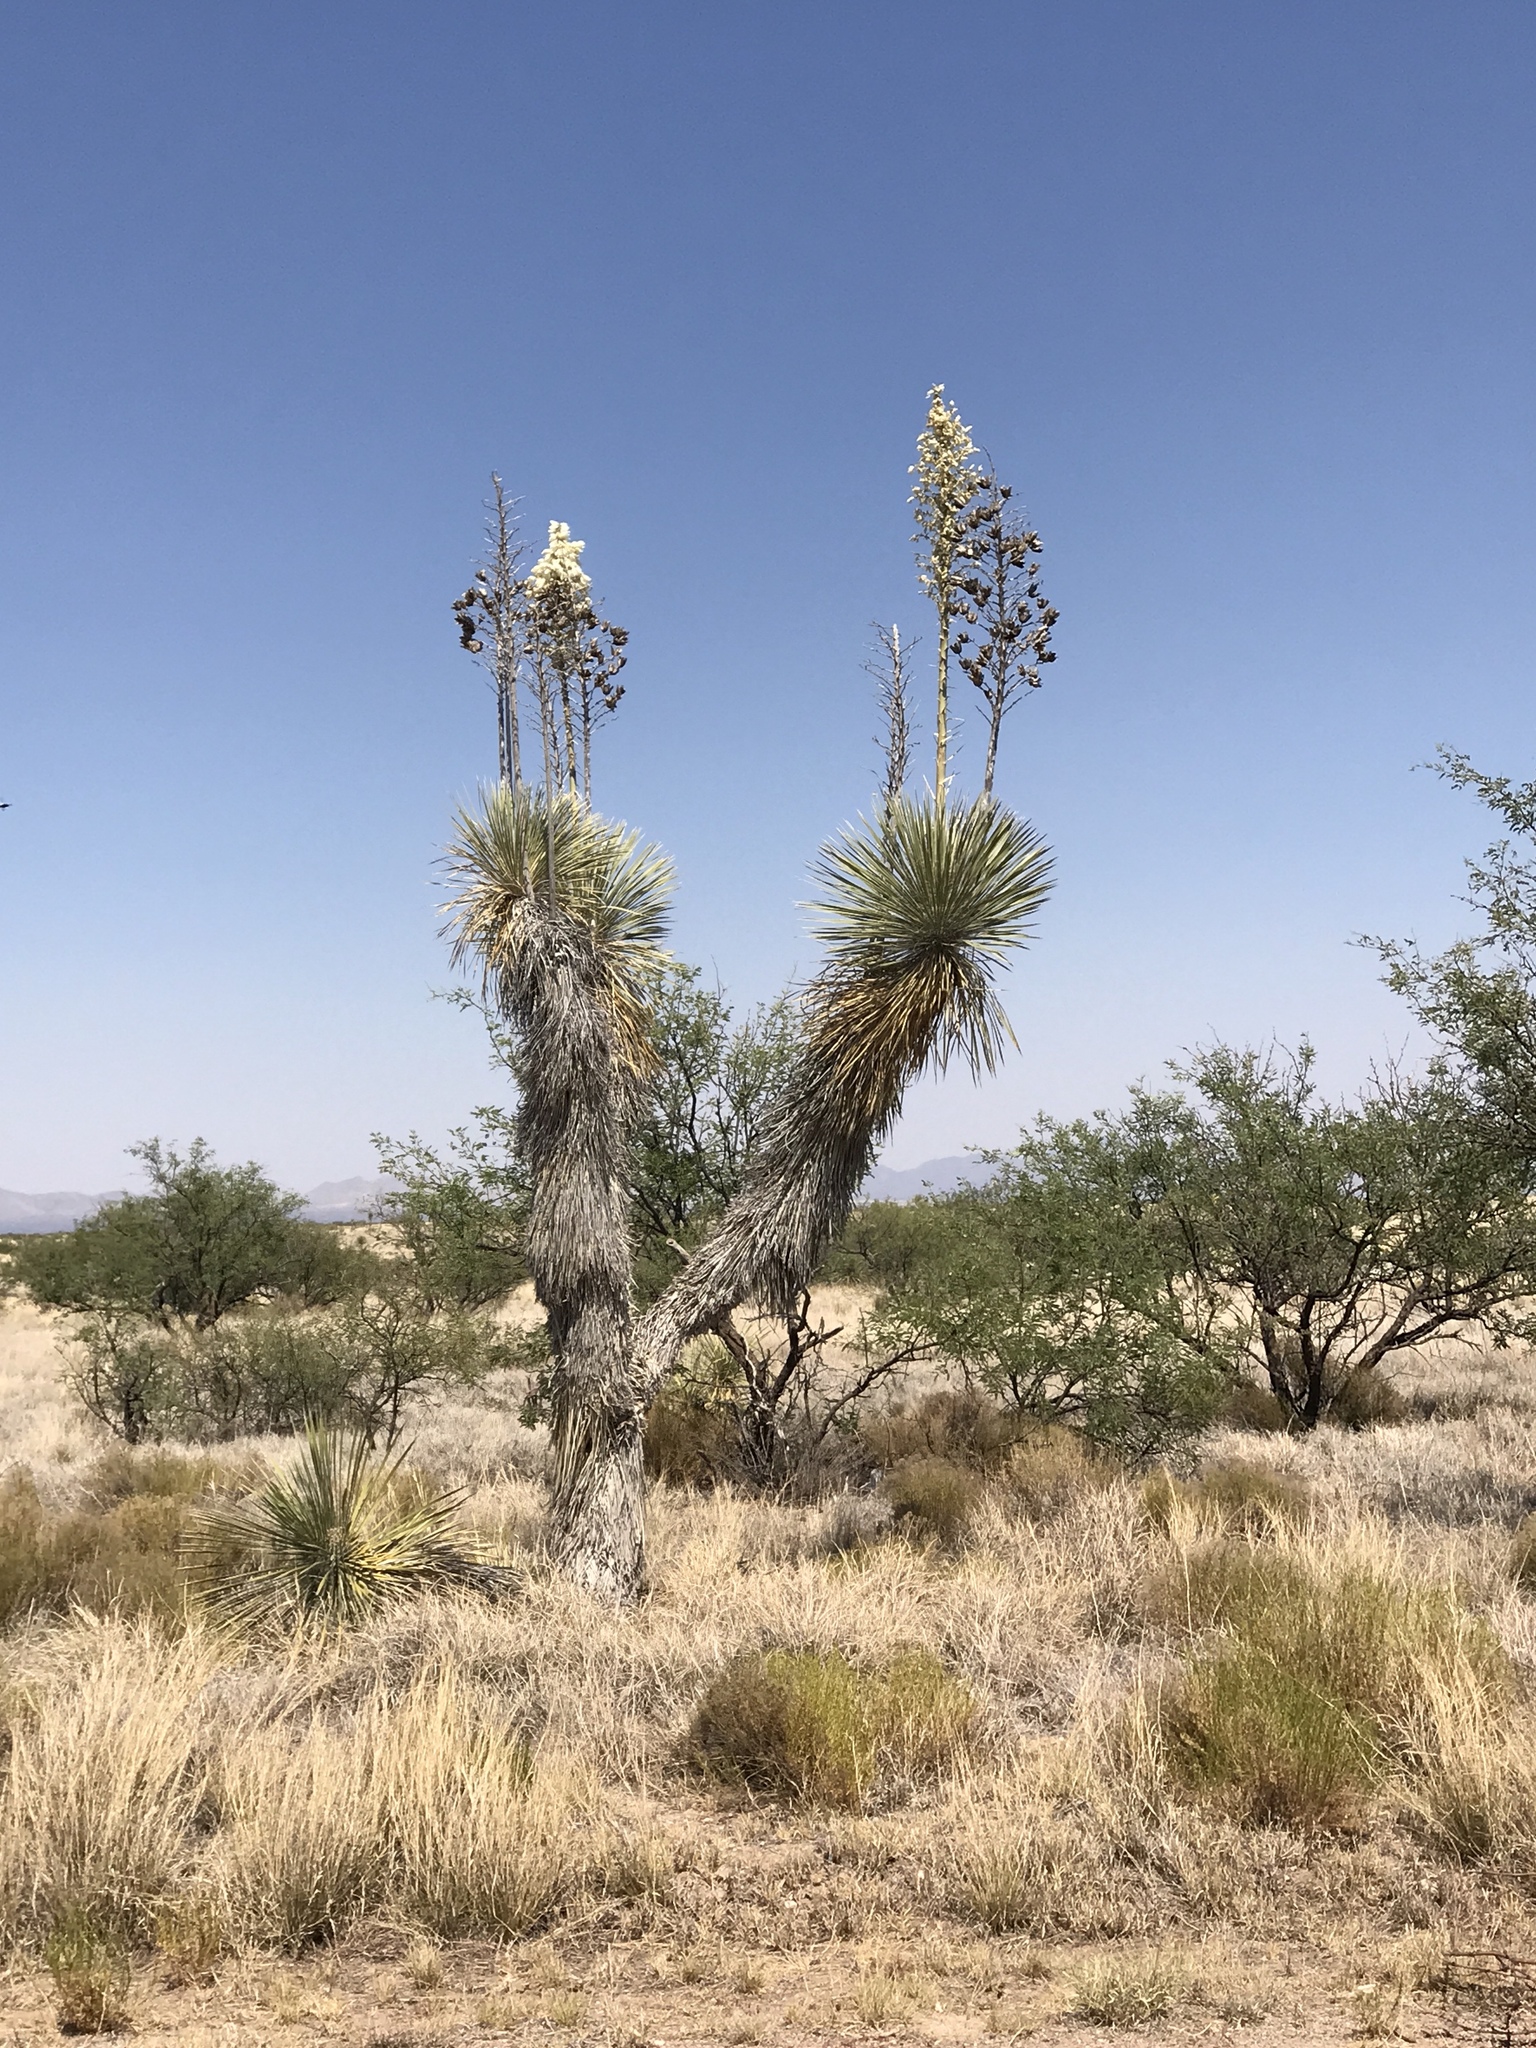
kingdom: Plantae
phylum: Tracheophyta
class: Liliopsida
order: Asparagales
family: Asparagaceae
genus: Yucca
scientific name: Yucca elata
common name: Palmella
